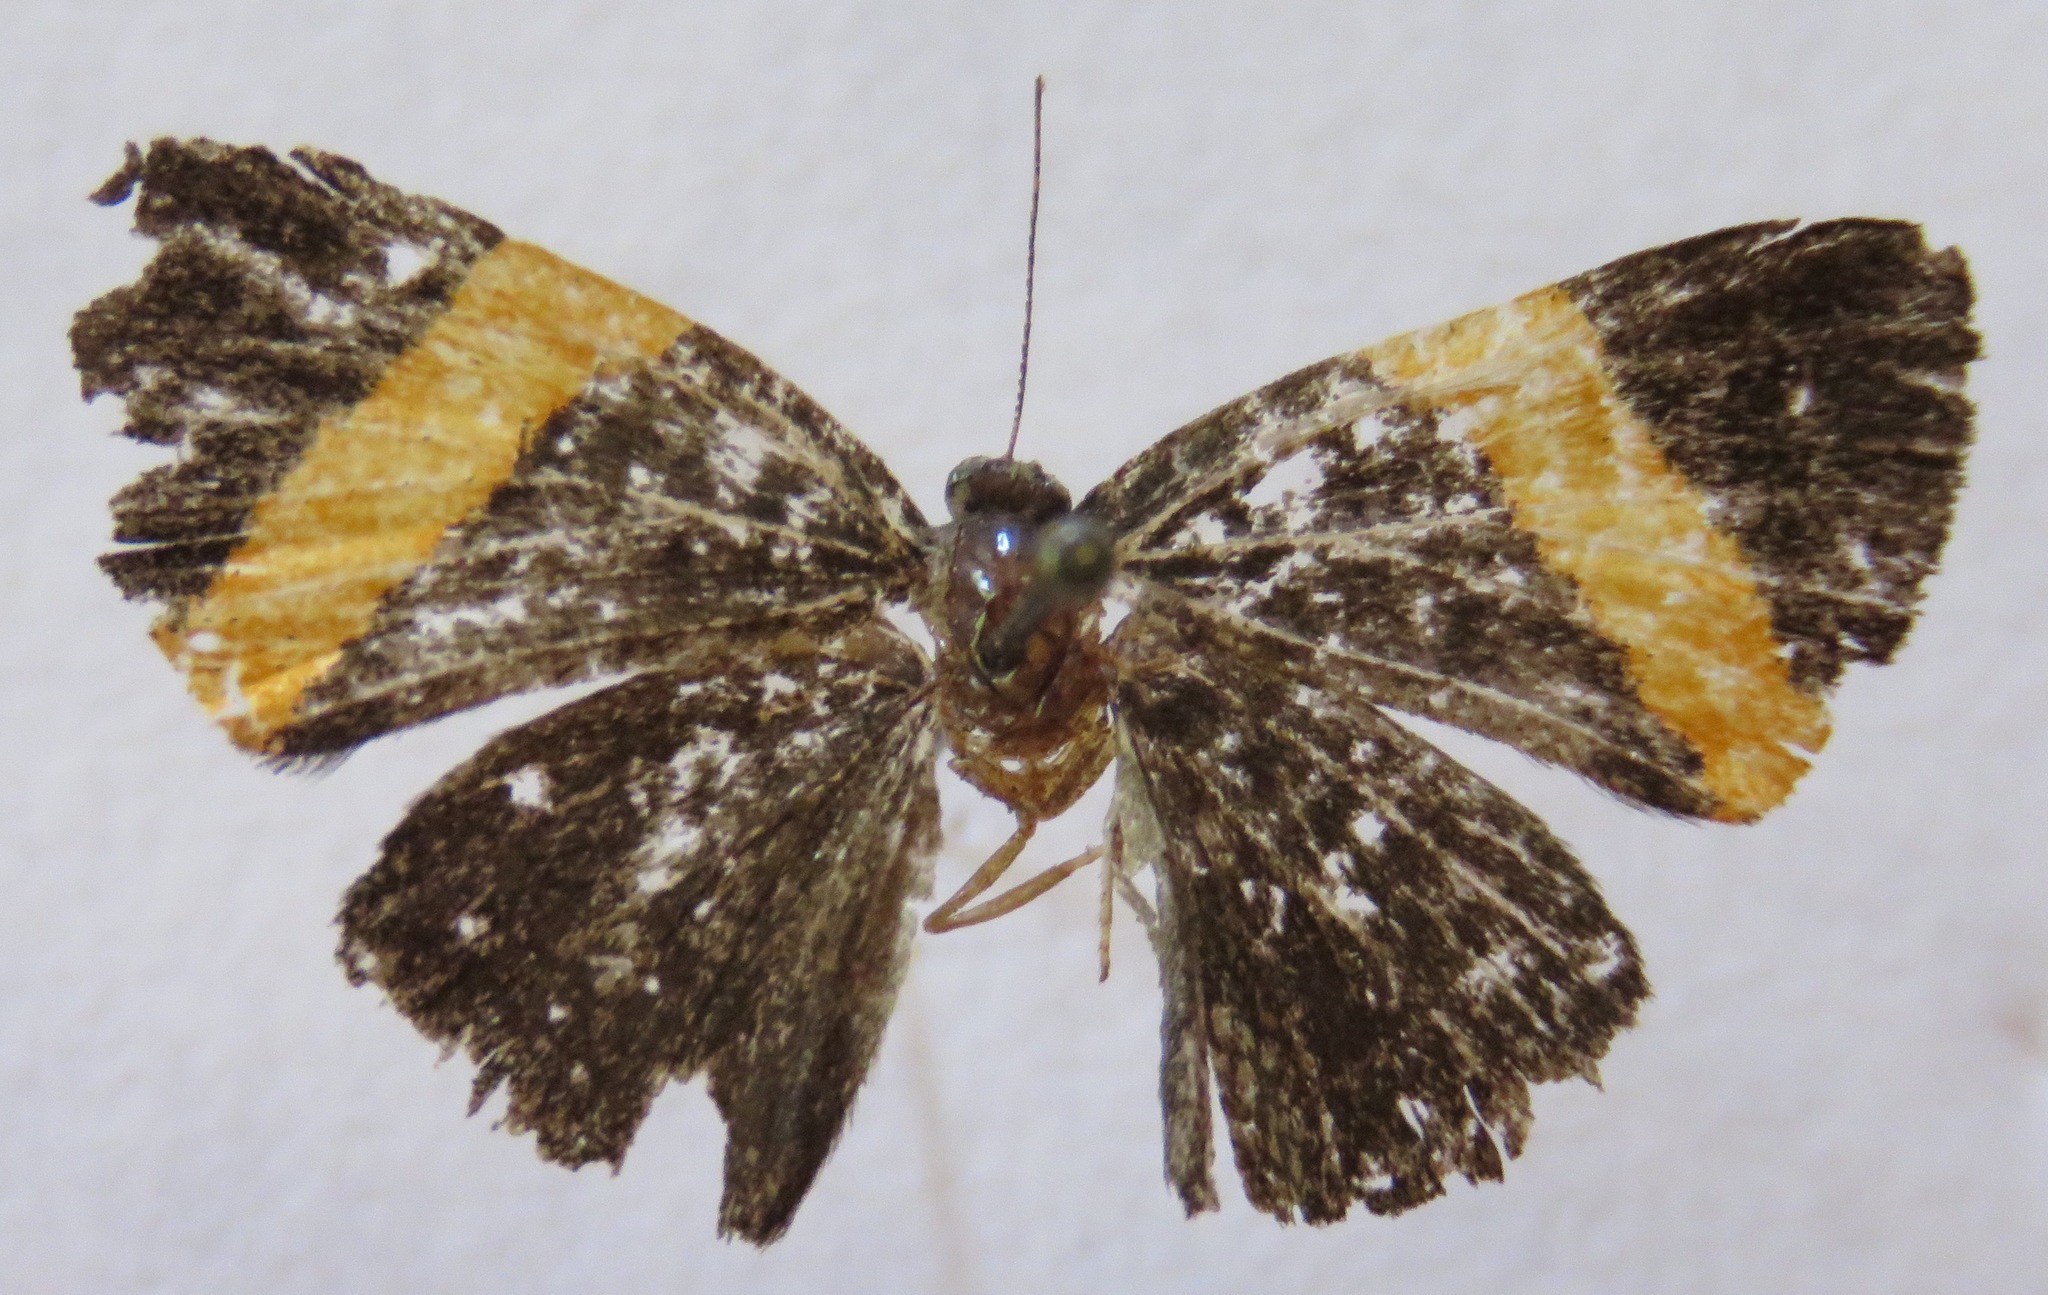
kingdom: Animalia
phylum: Arthropoda
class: Insecta
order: Lepidoptera
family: Riodinidae
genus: Pirascca
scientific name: Pirascca tyriotes
